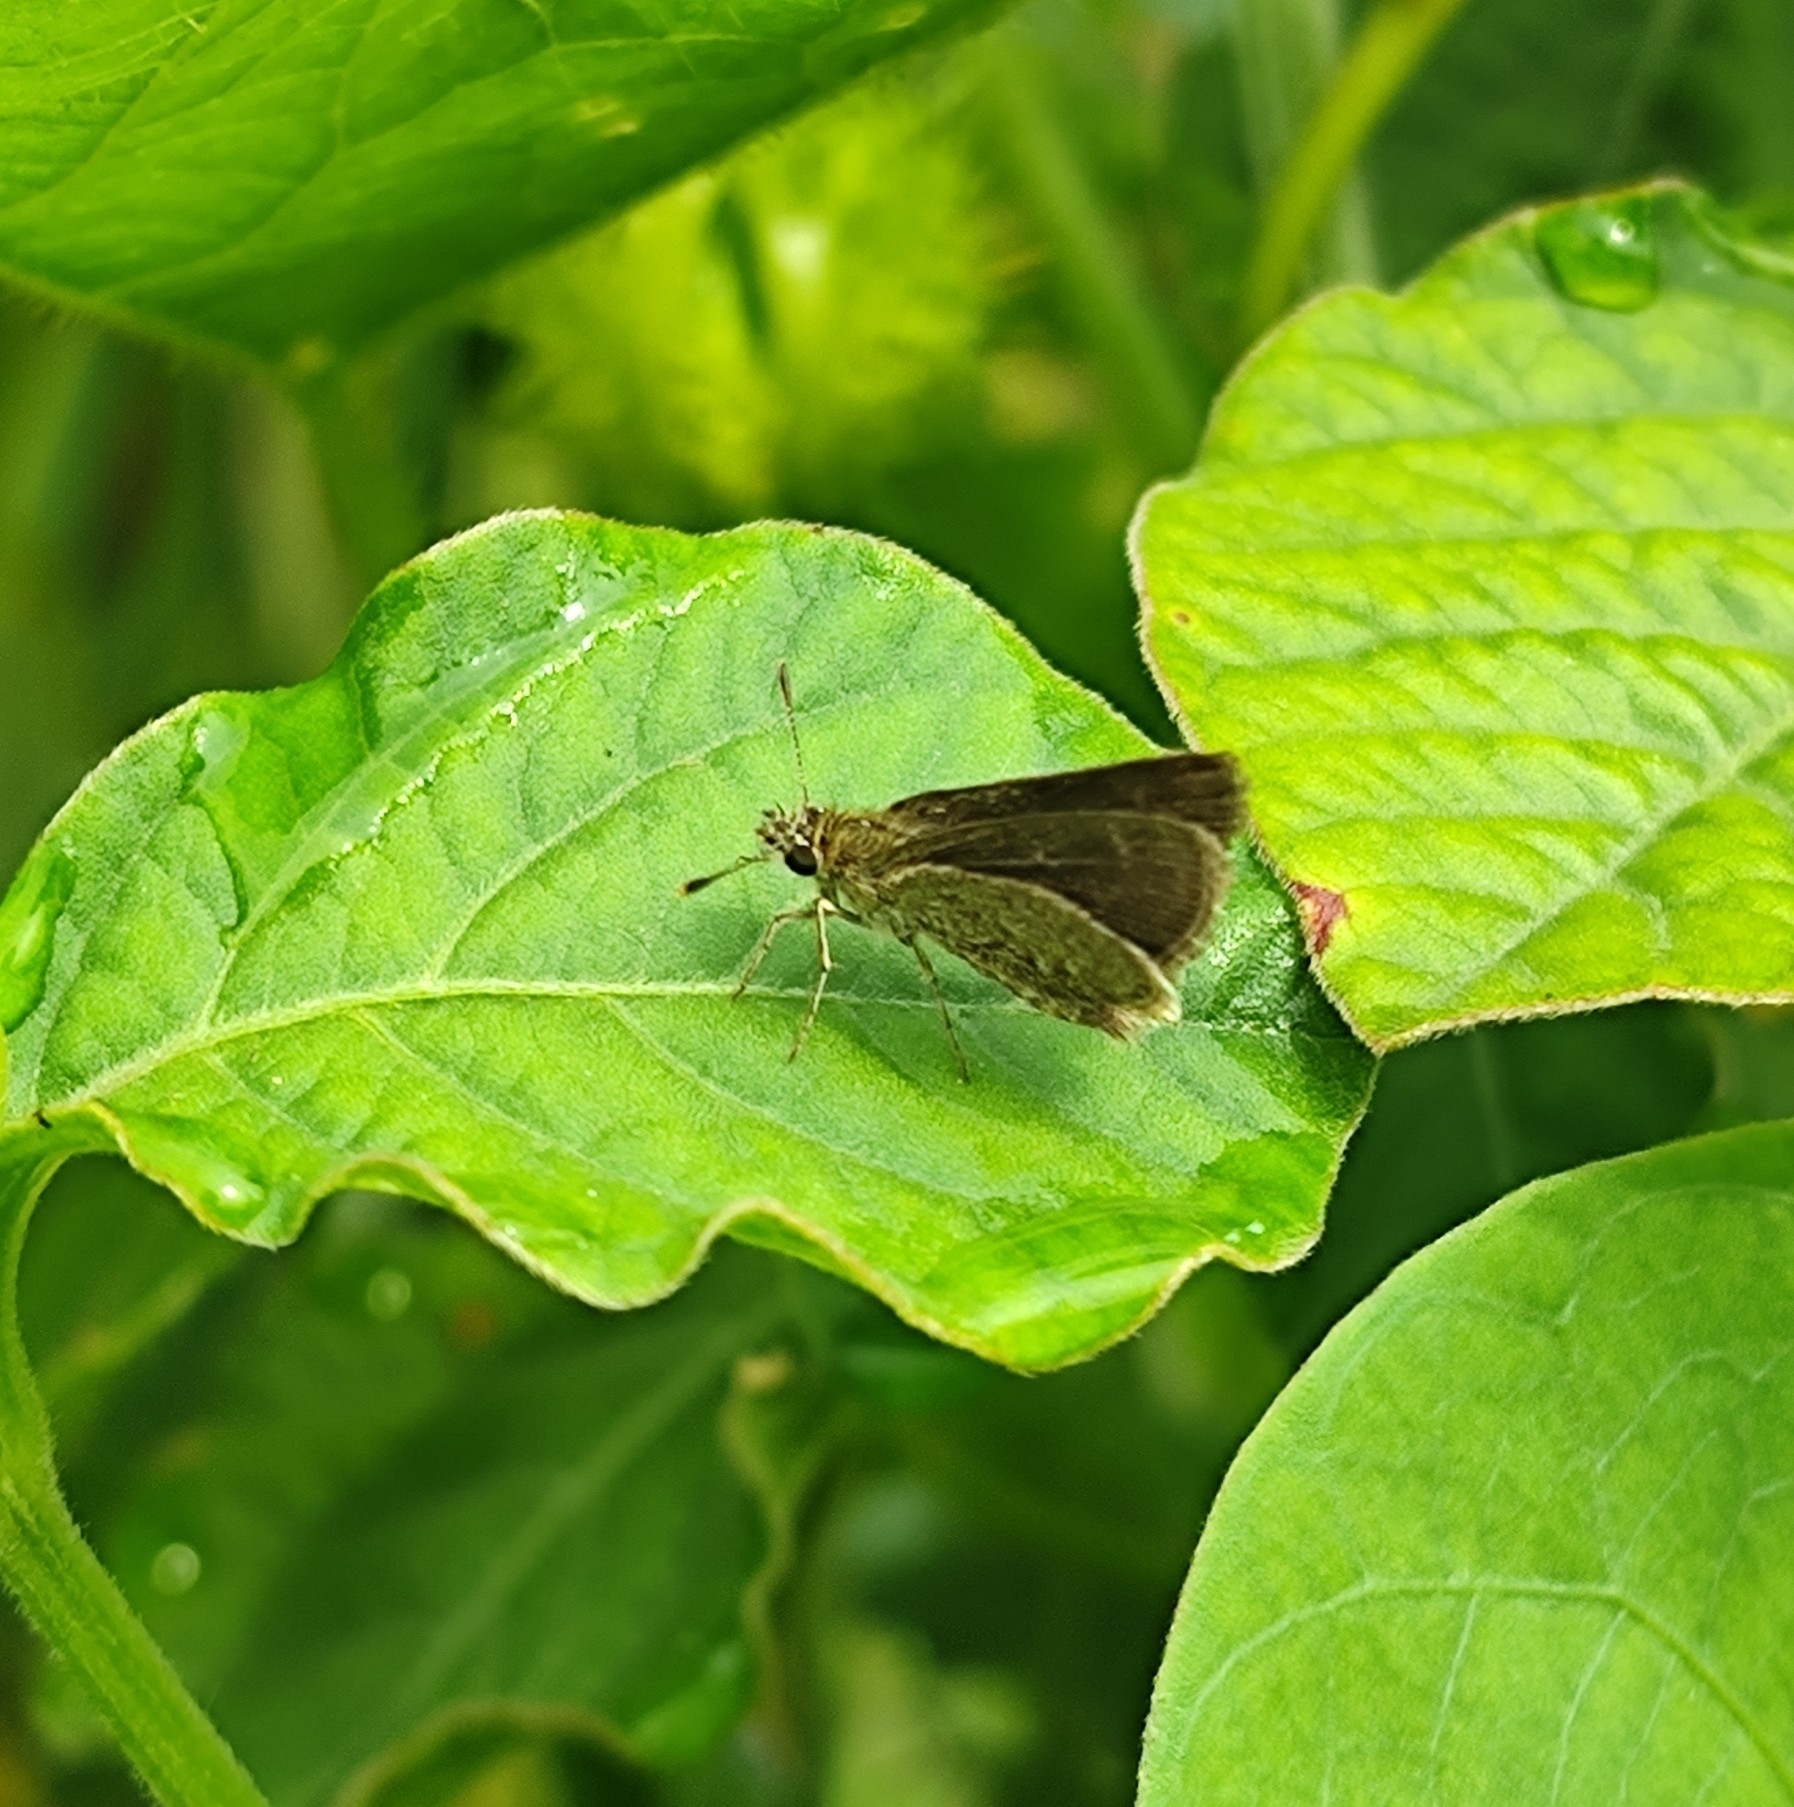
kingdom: Animalia
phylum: Arthropoda
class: Insecta
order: Lepidoptera
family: Hesperiidae
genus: Aeromachus
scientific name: Aeromachus pygmaeus
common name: Pygmy scrub hopper
